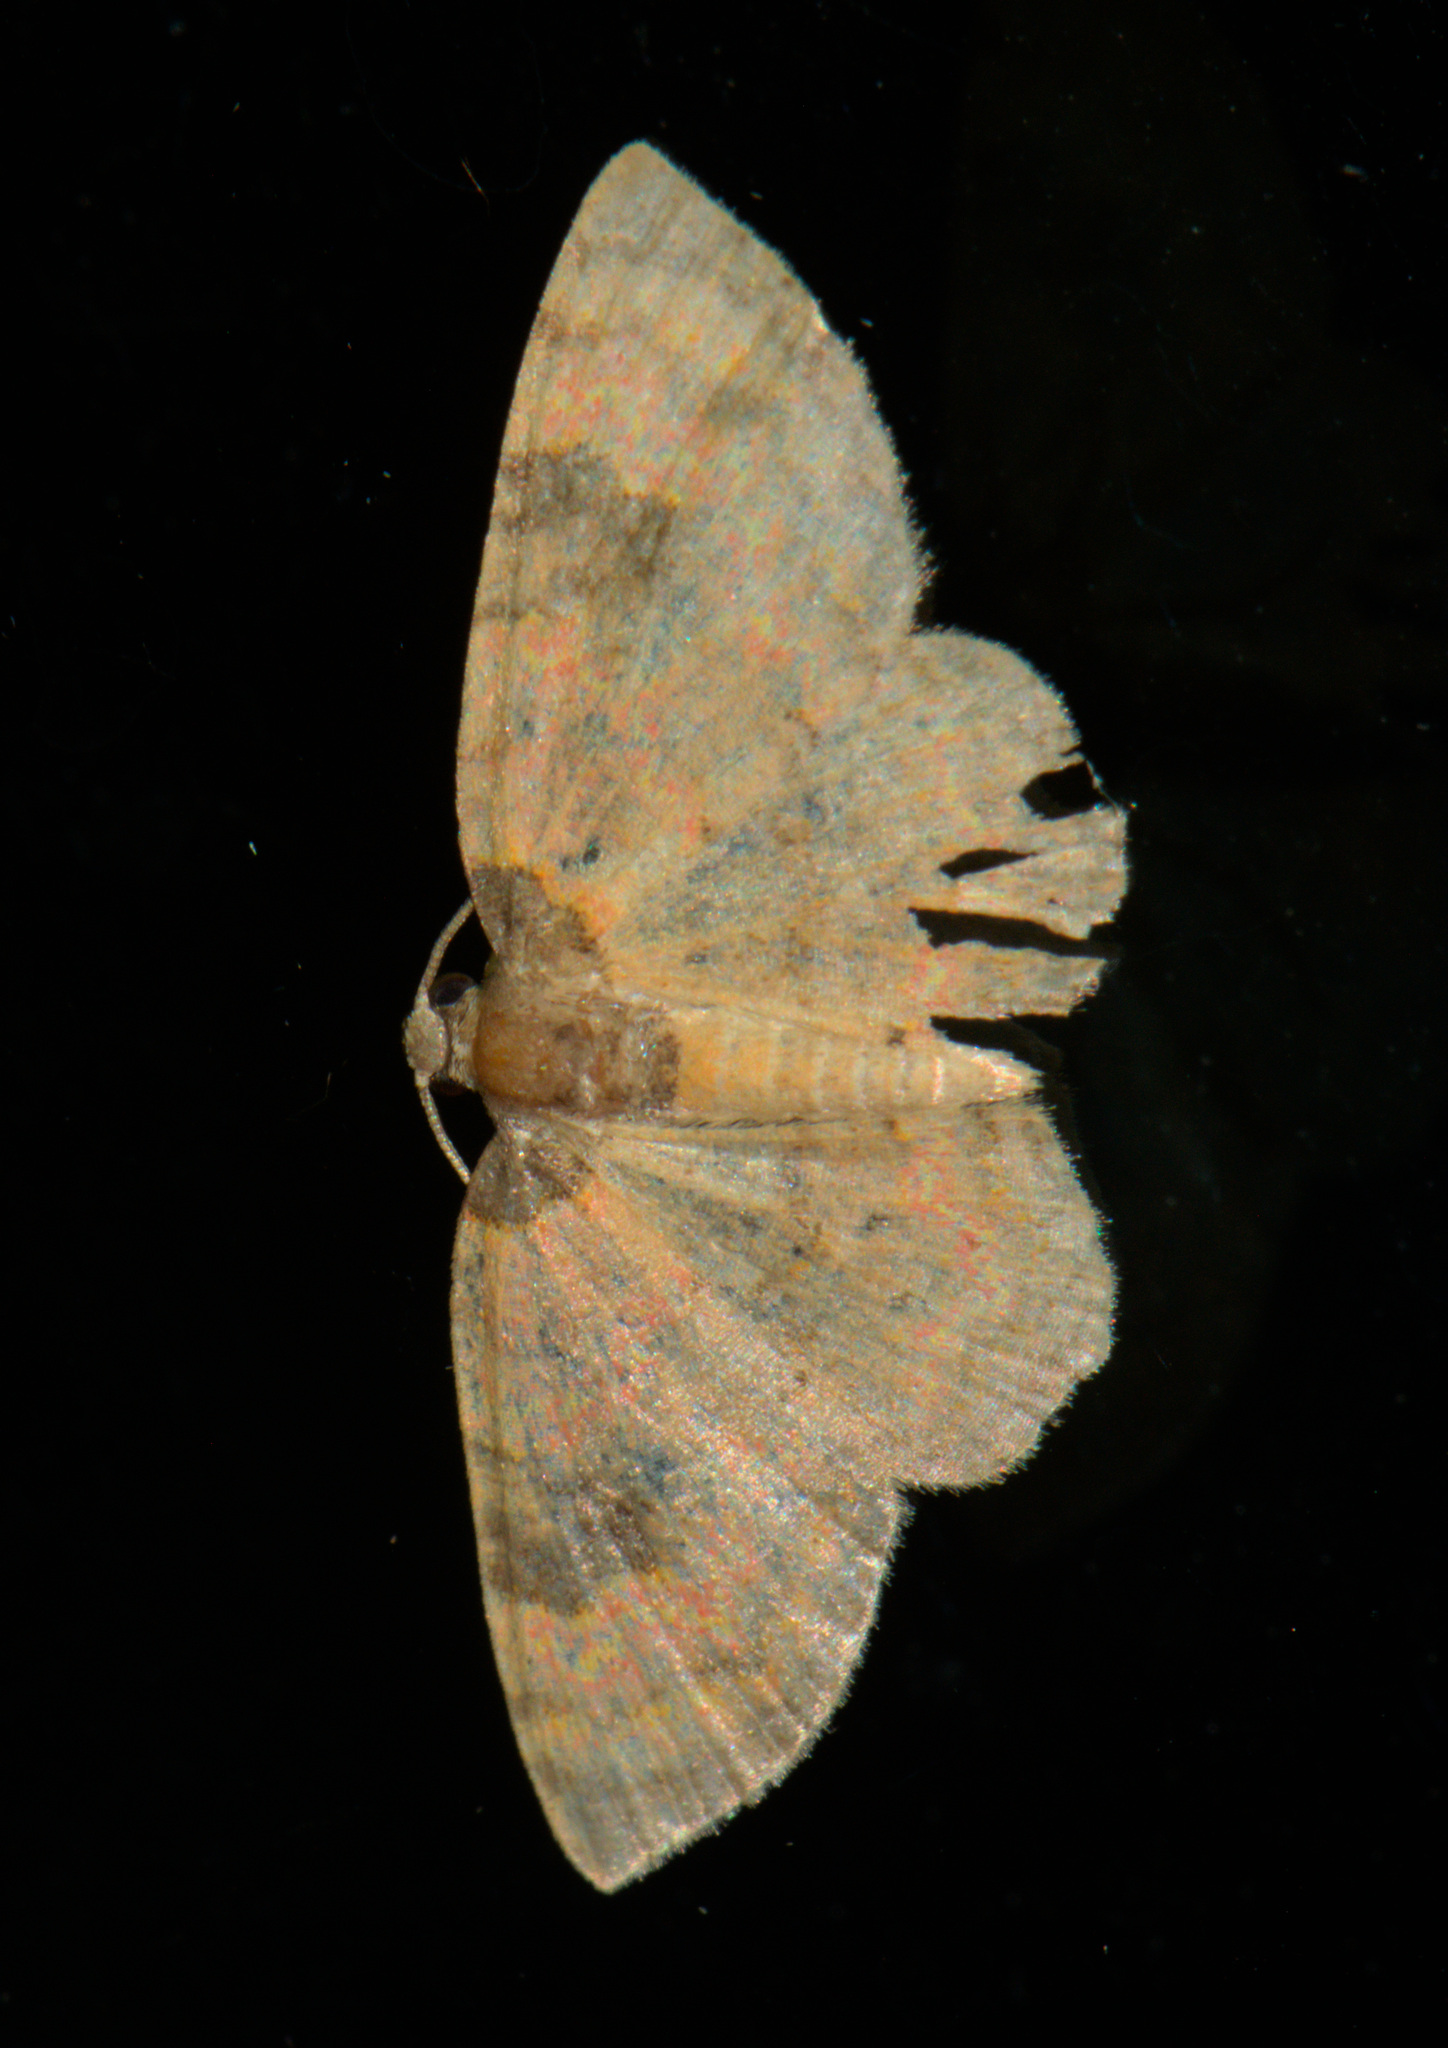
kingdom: Animalia
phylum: Arthropoda
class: Insecta
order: Lepidoptera
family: Geometridae
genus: Hydrelia
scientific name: Hydrelia bicolorata
